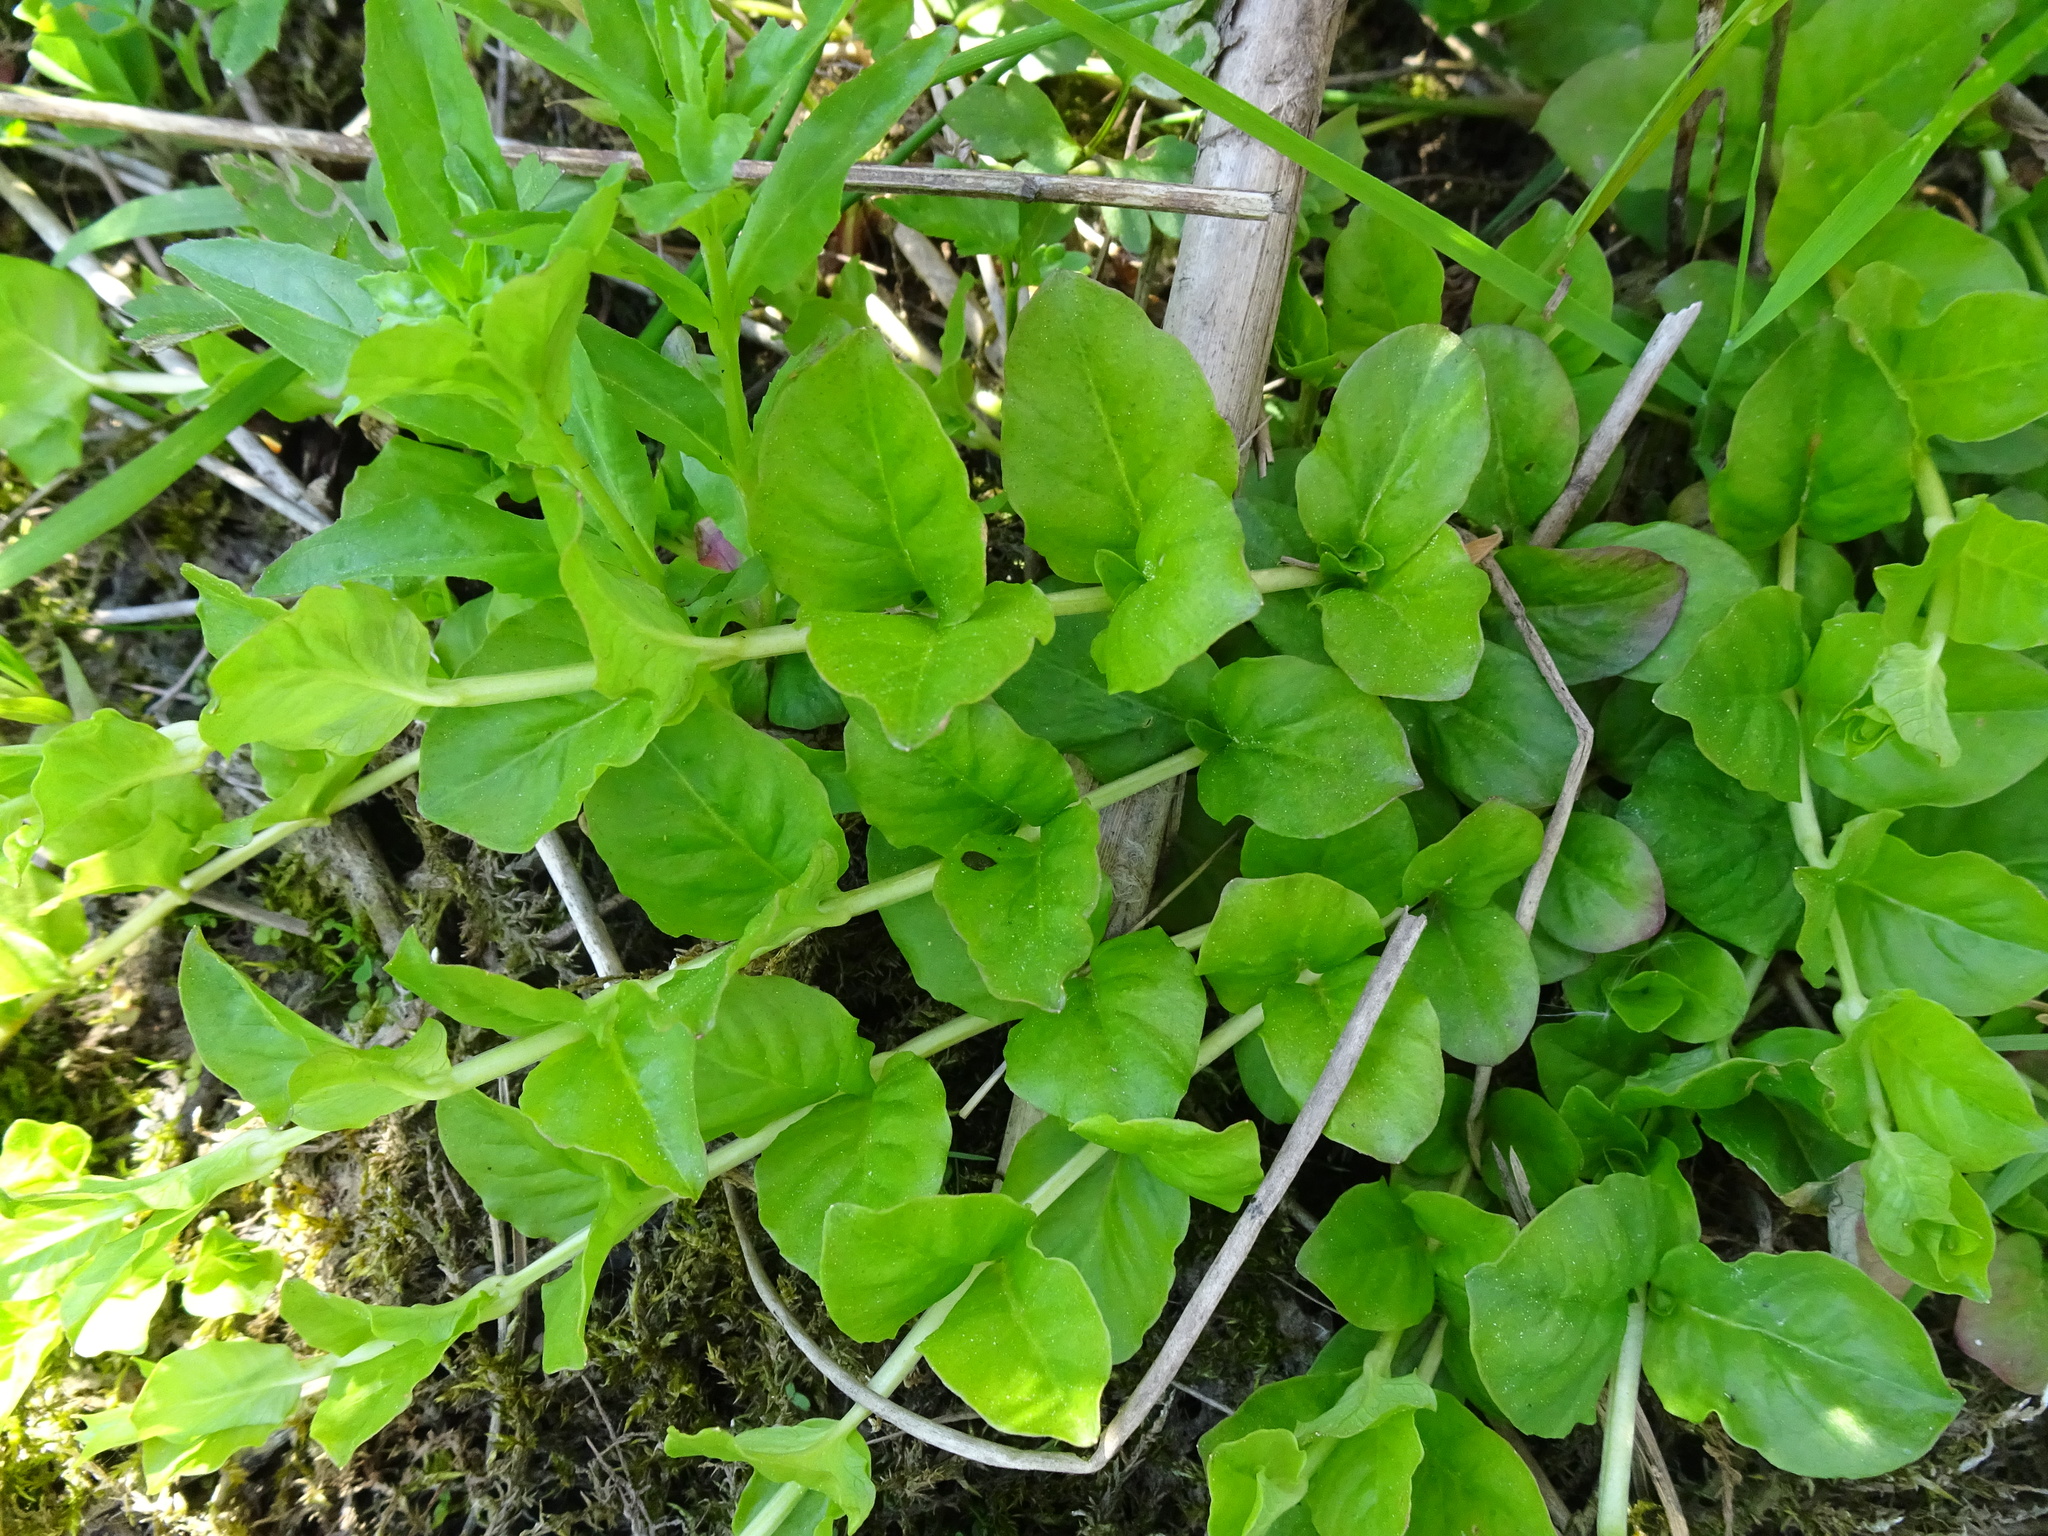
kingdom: Plantae
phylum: Tracheophyta
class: Magnoliopsida
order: Ericales
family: Primulaceae
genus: Lysimachia
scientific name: Lysimachia nummularia
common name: Moneywort
